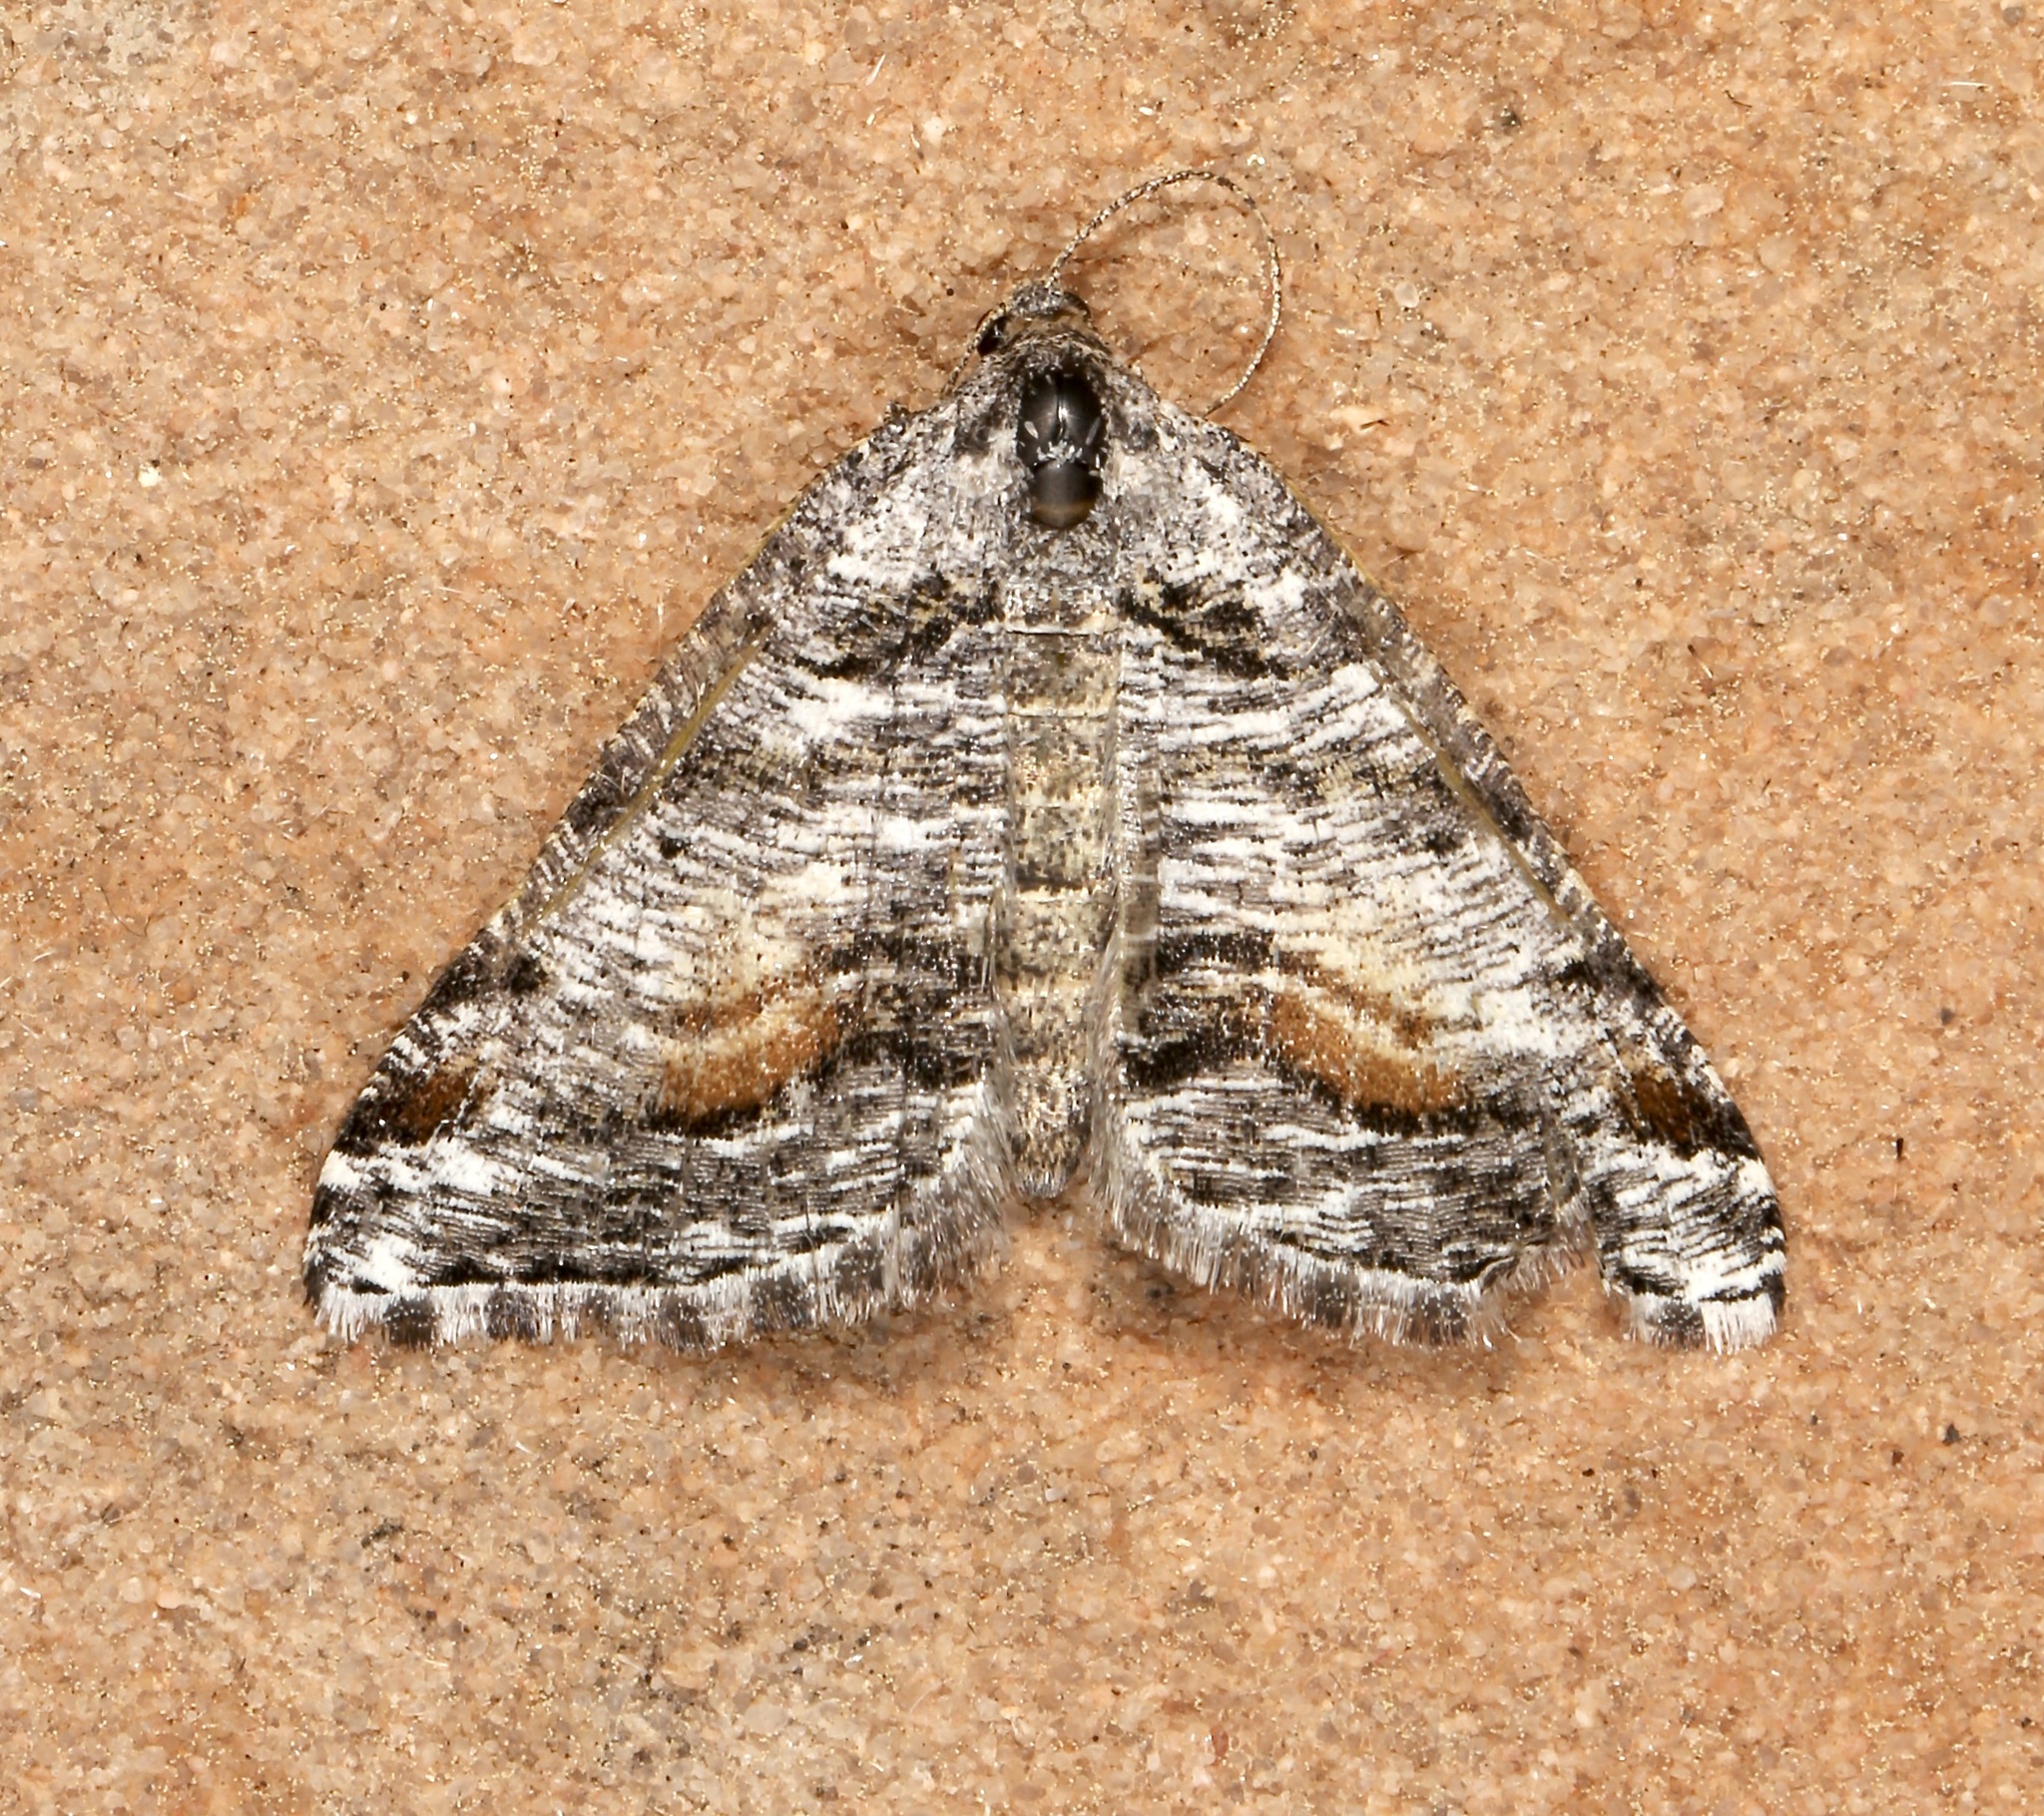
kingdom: Animalia
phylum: Arthropoda
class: Insecta
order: Lepidoptera
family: Geometridae
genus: Macaria
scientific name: Macaria colata
